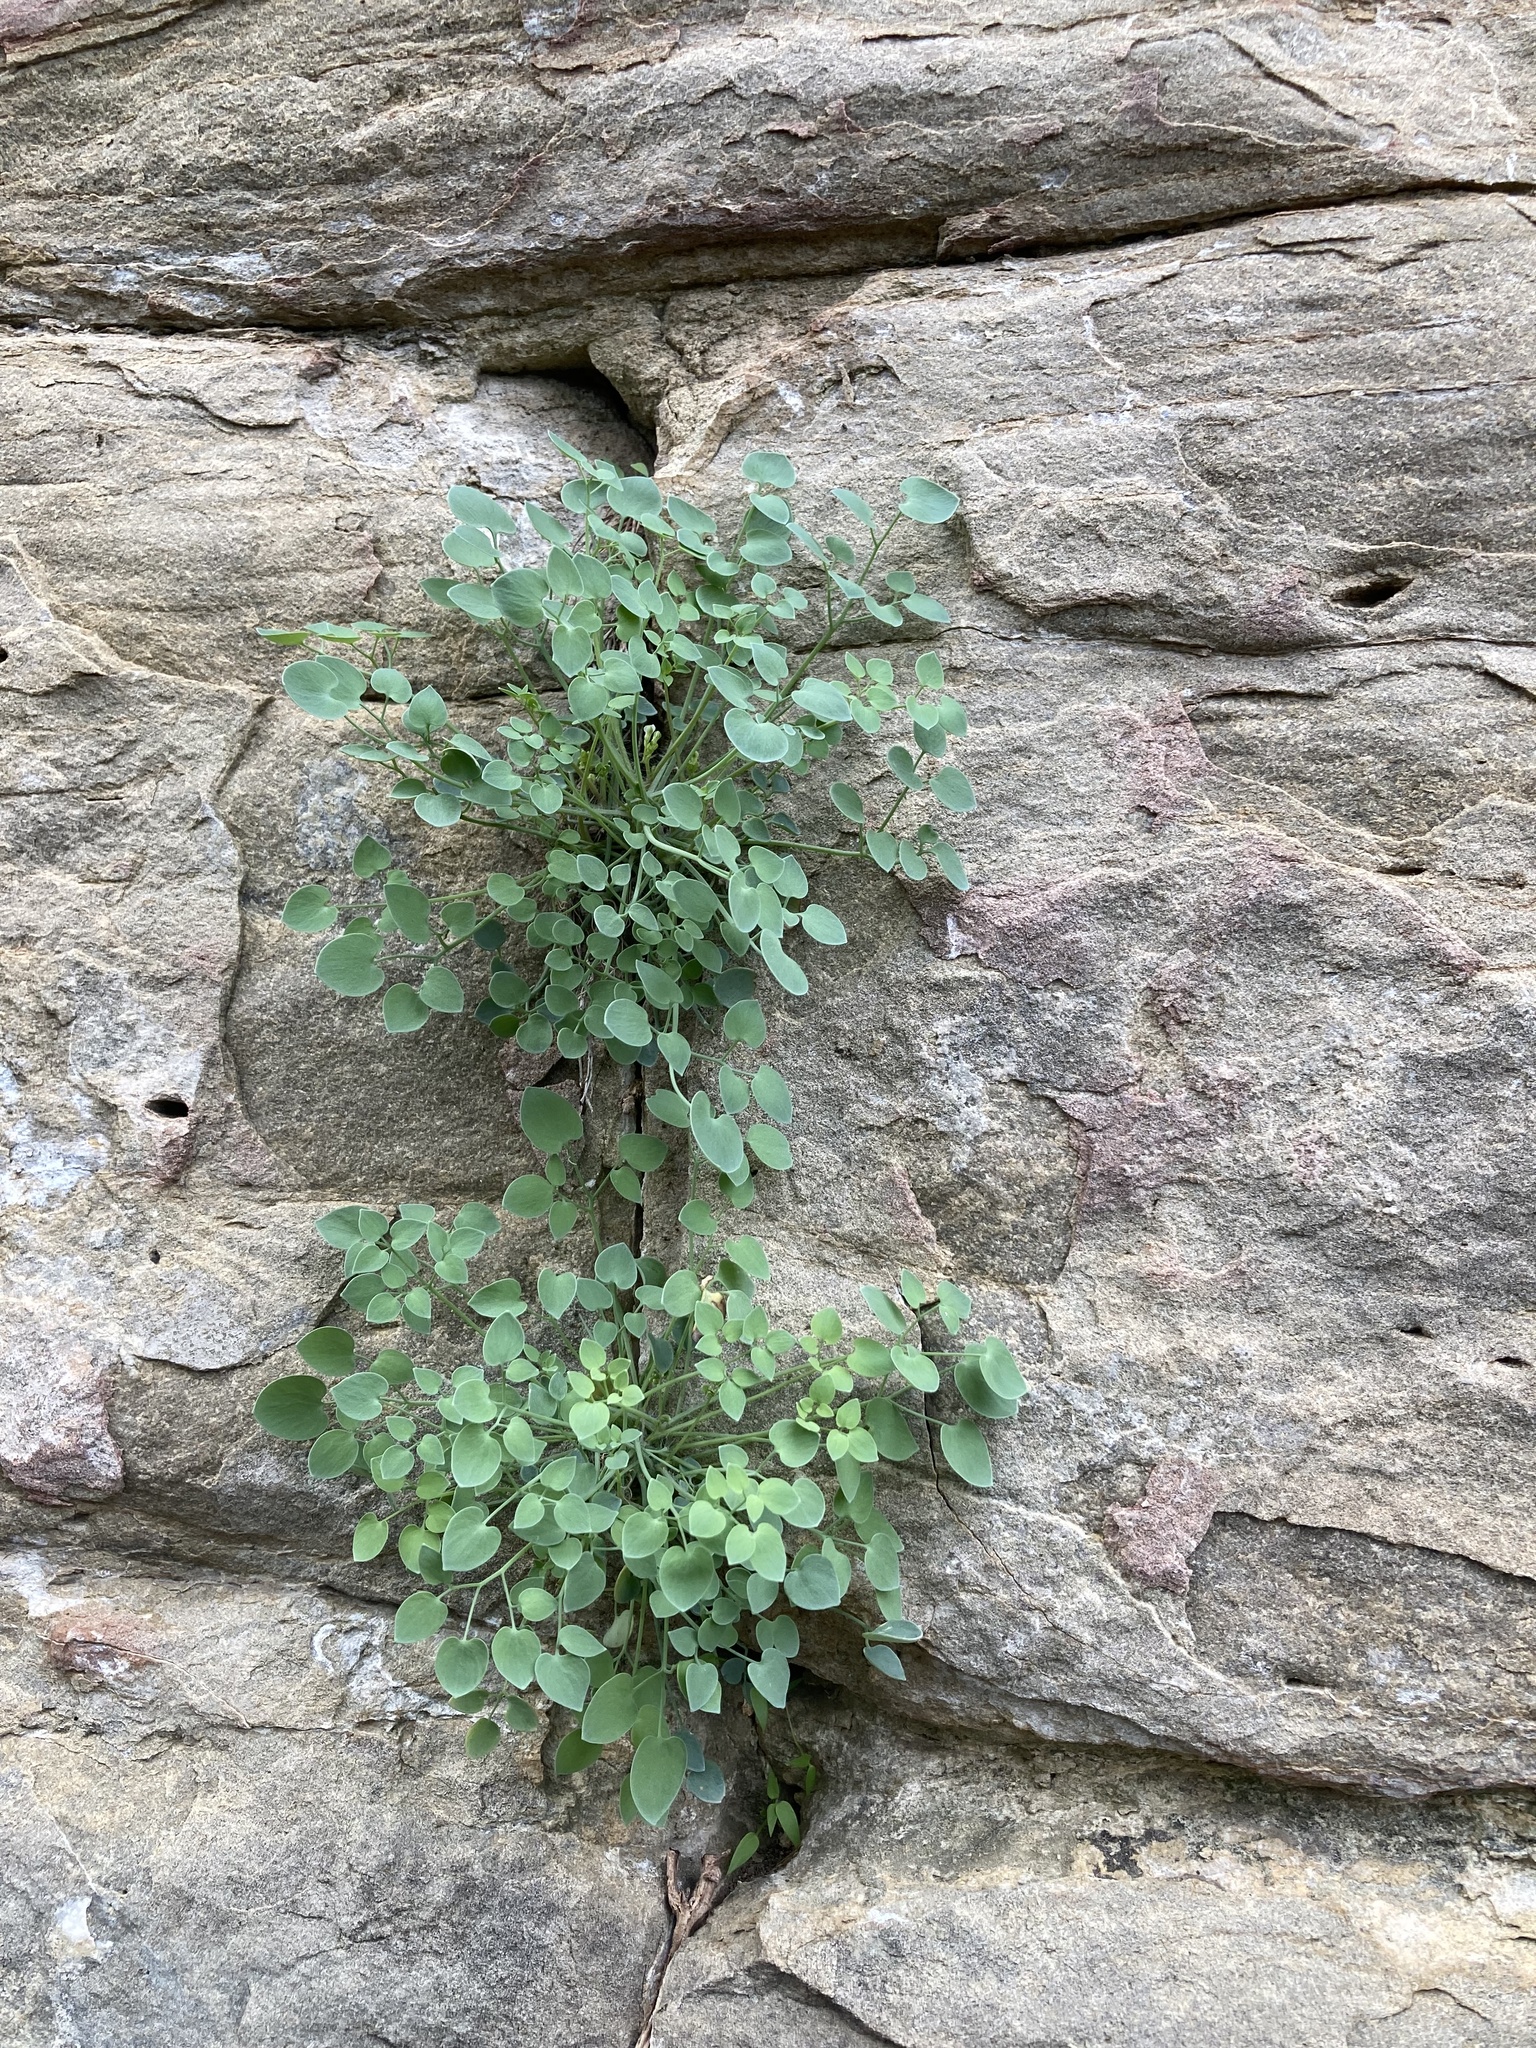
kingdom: Plantae
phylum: Tracheophyta
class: Magnoliopsida
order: Ranunculales
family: Papaveraceae
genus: Sarcocapnos
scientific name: Sarcocapnos enneaphylla
